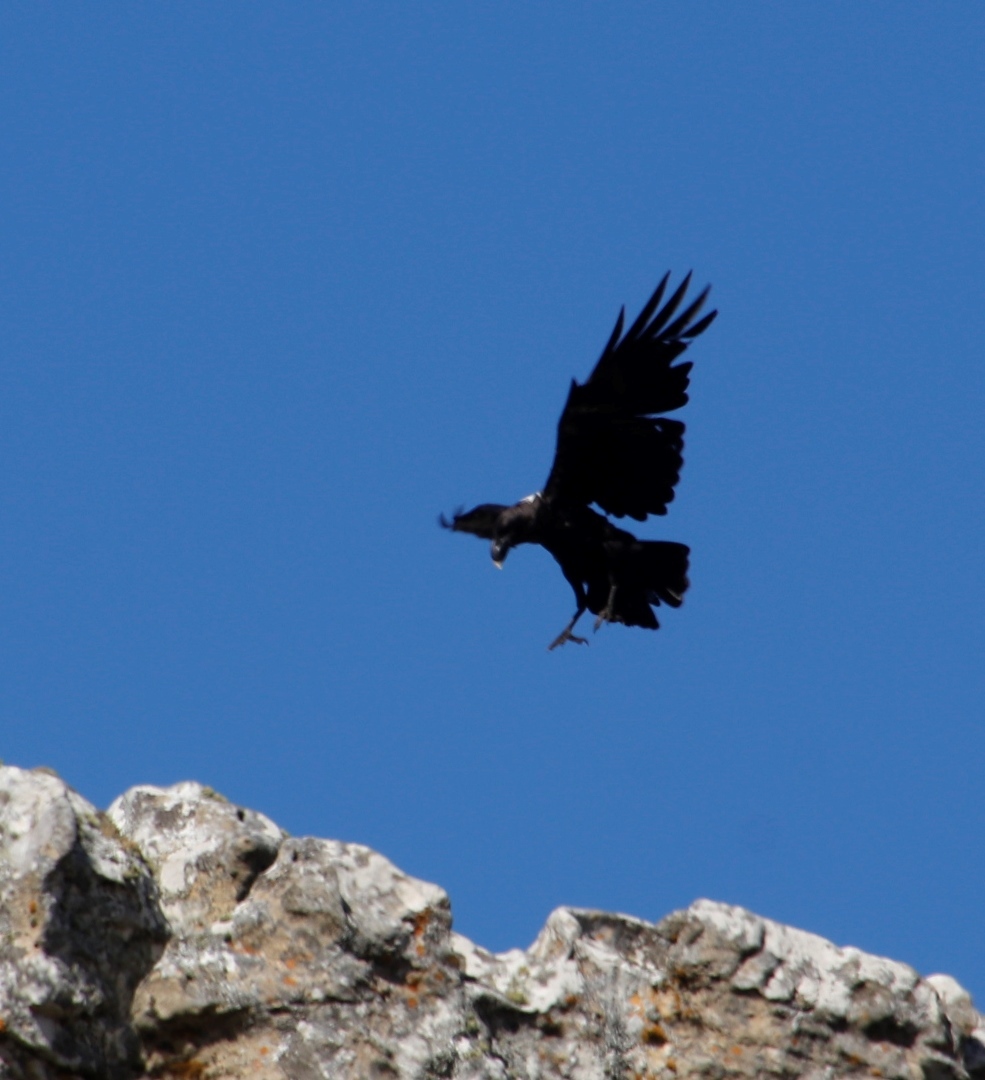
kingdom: Animalia
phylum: Chordata
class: Aves
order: Passeriformes
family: Corvidae
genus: Corvus
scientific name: Corvus albicollis
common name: White-necked raven
